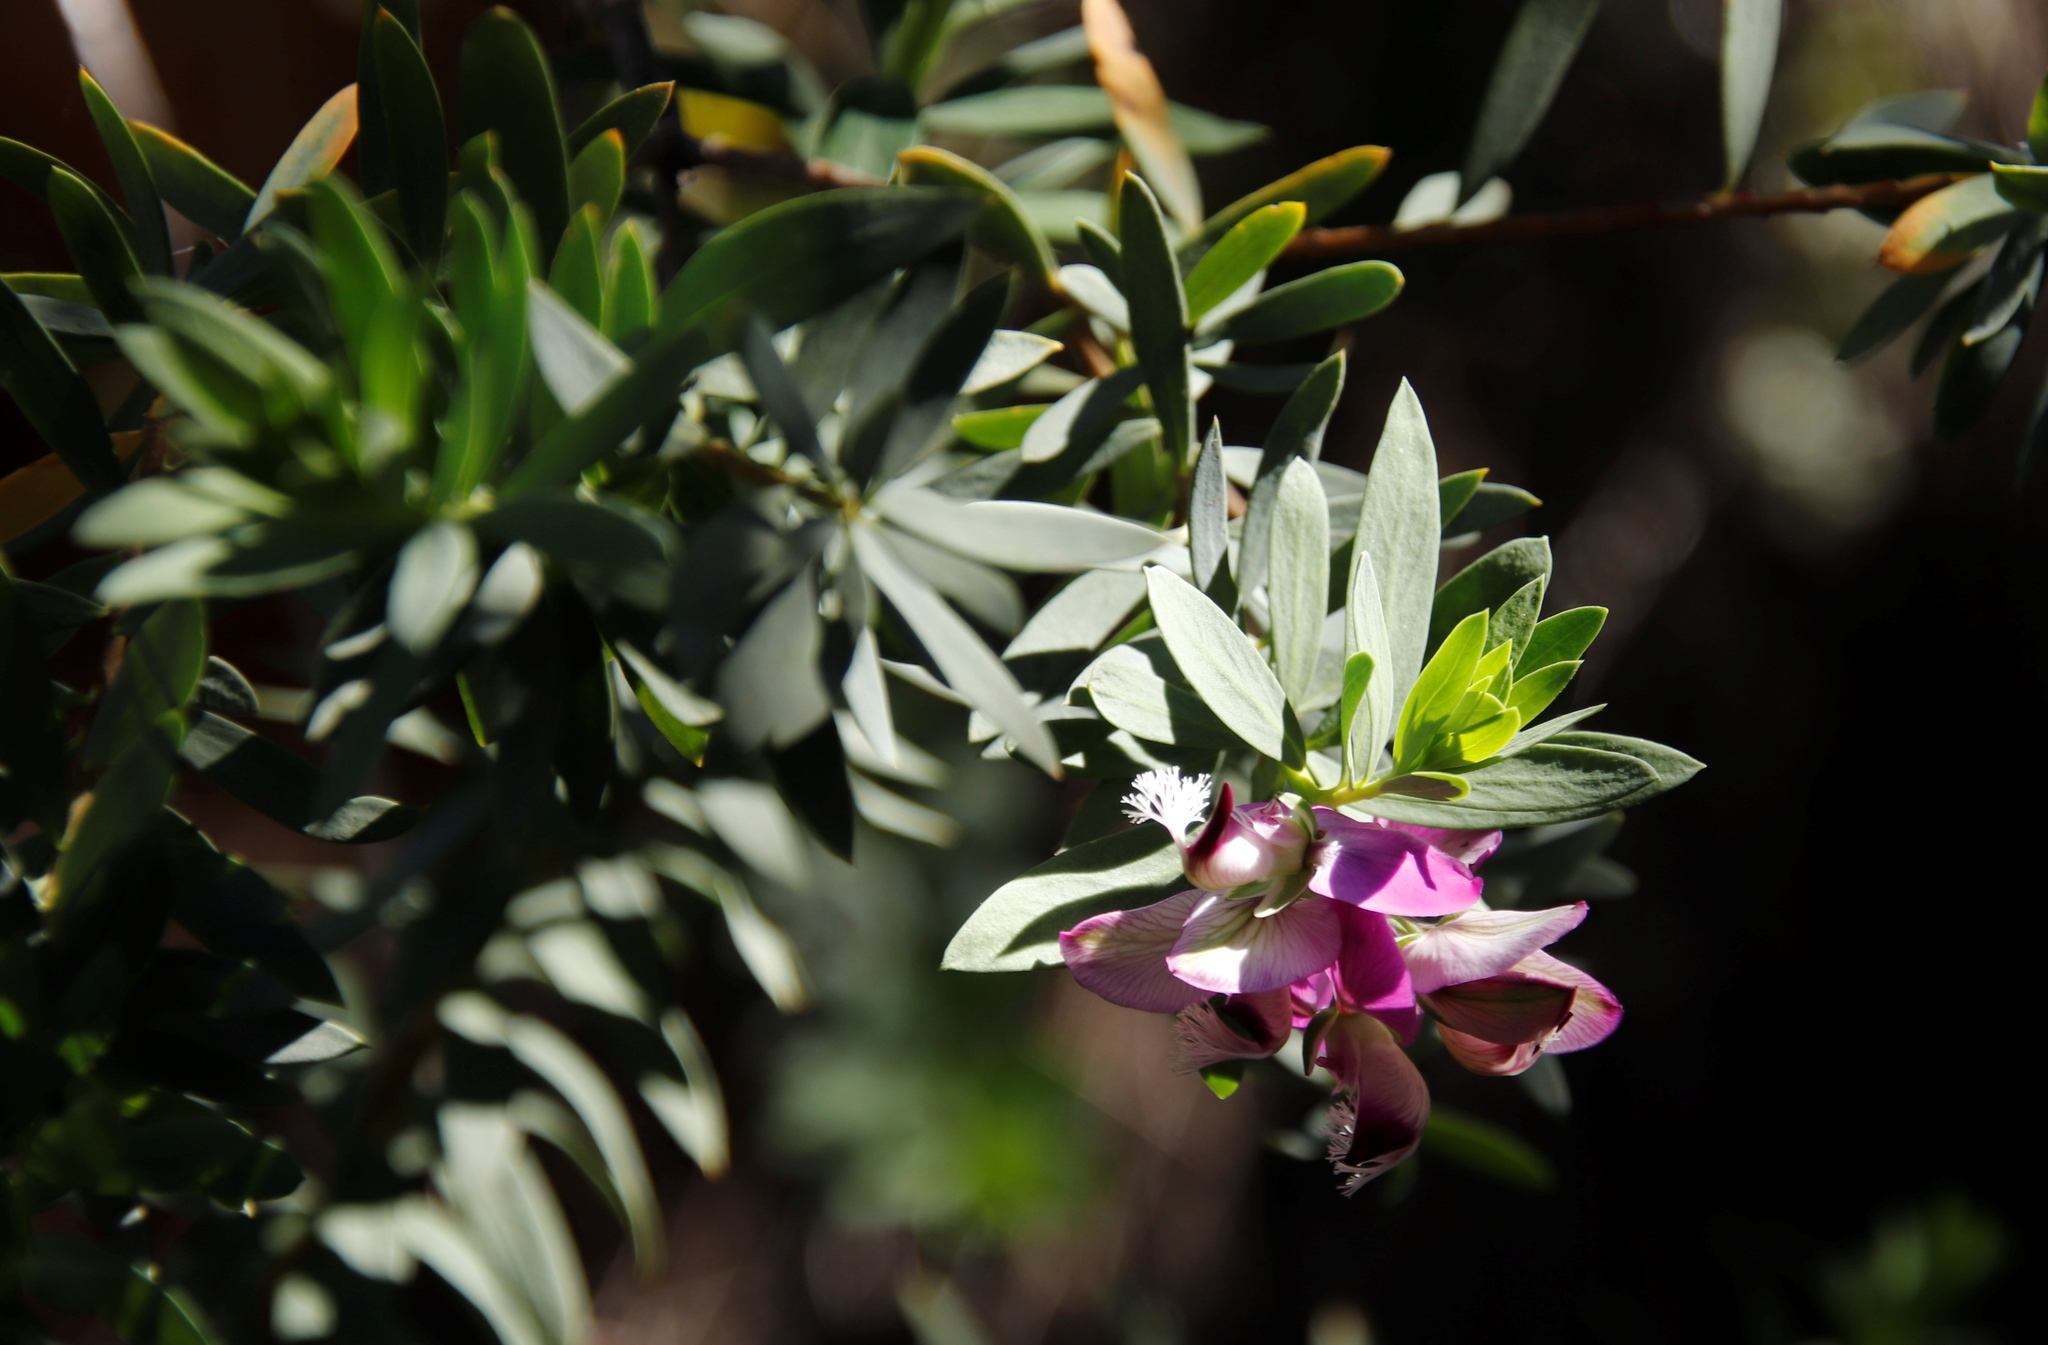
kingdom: Plantae
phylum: Tracheophyta
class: Magnoliopsida
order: Fabales
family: Polygalaceae
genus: Polygala
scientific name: Polygala myrtifolia
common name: Myrtle-leaf milkwort
